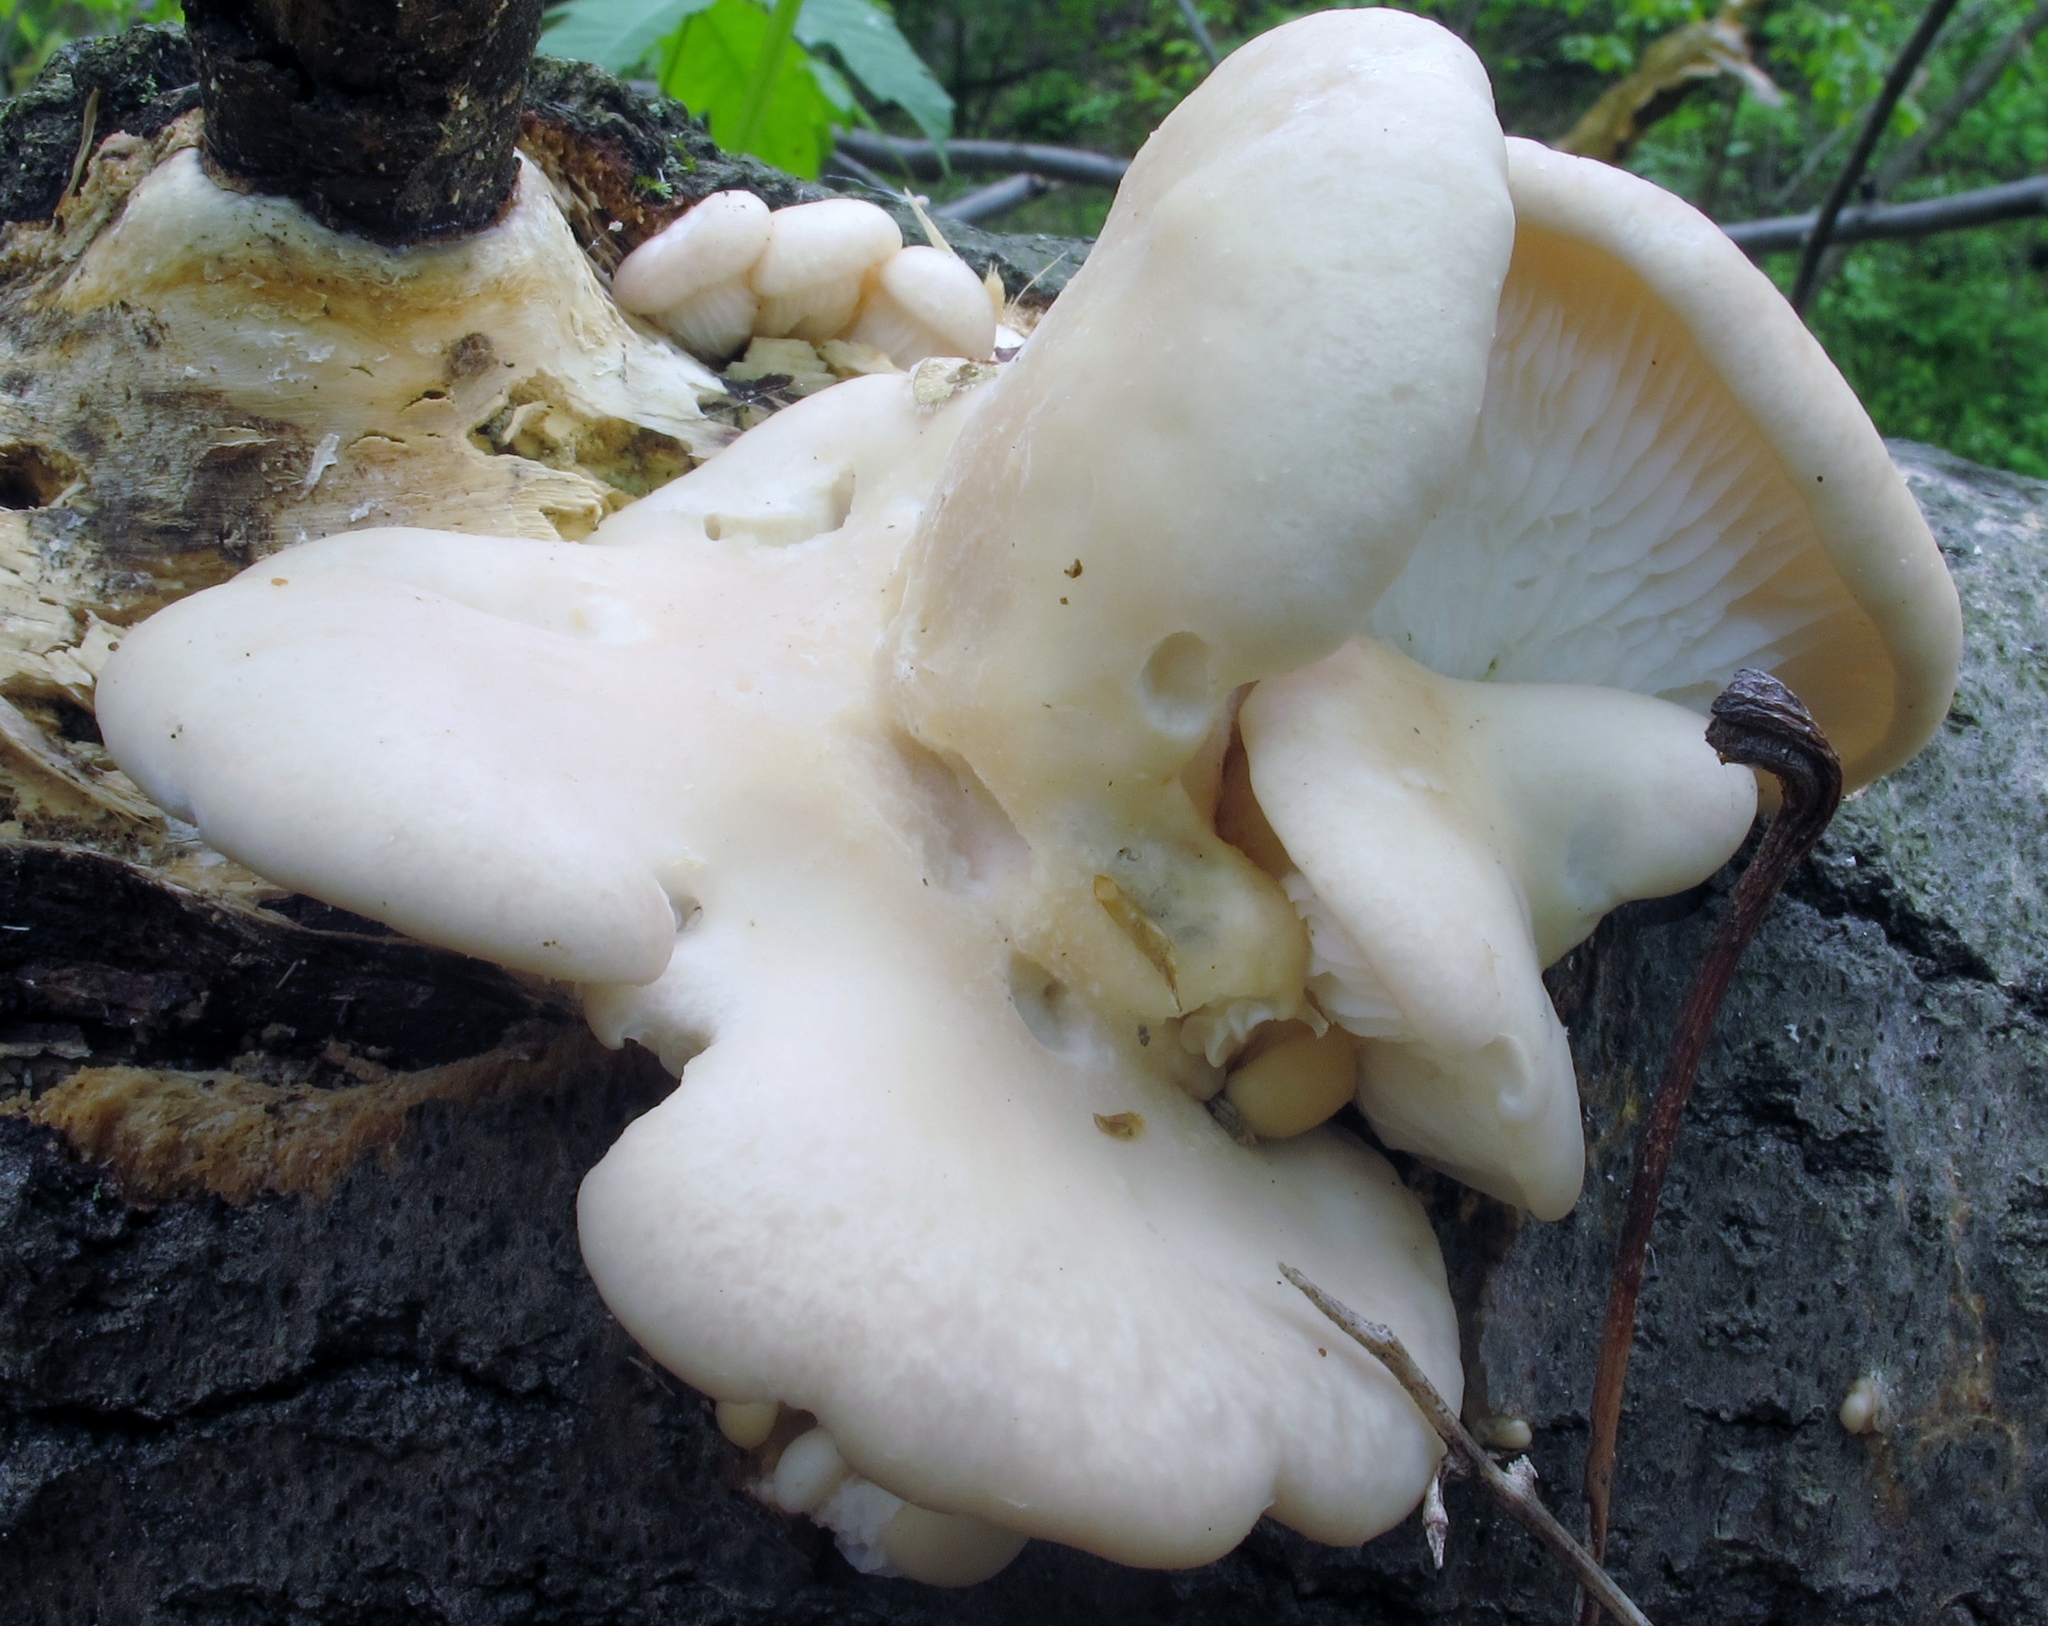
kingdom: Fungi
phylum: Basidiomycota
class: Agaricomycetes
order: Agaricales
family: Pleurotaceae
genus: Pleurotus
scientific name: Pleurotus populinus
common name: Aspen oyster mushroom
